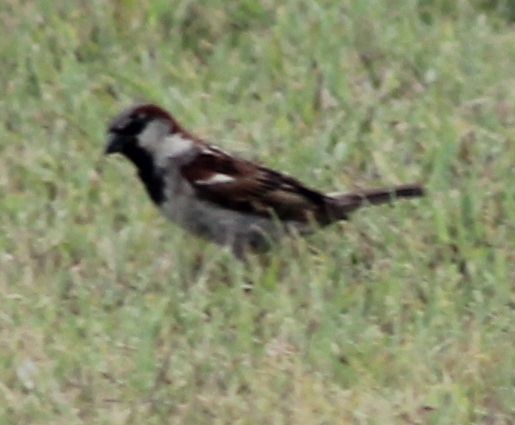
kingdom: Animalia
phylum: Chordata
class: Aves
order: Passeriformes
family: Passeridae
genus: Passer
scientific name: Passer domesticus
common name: House sparrow
